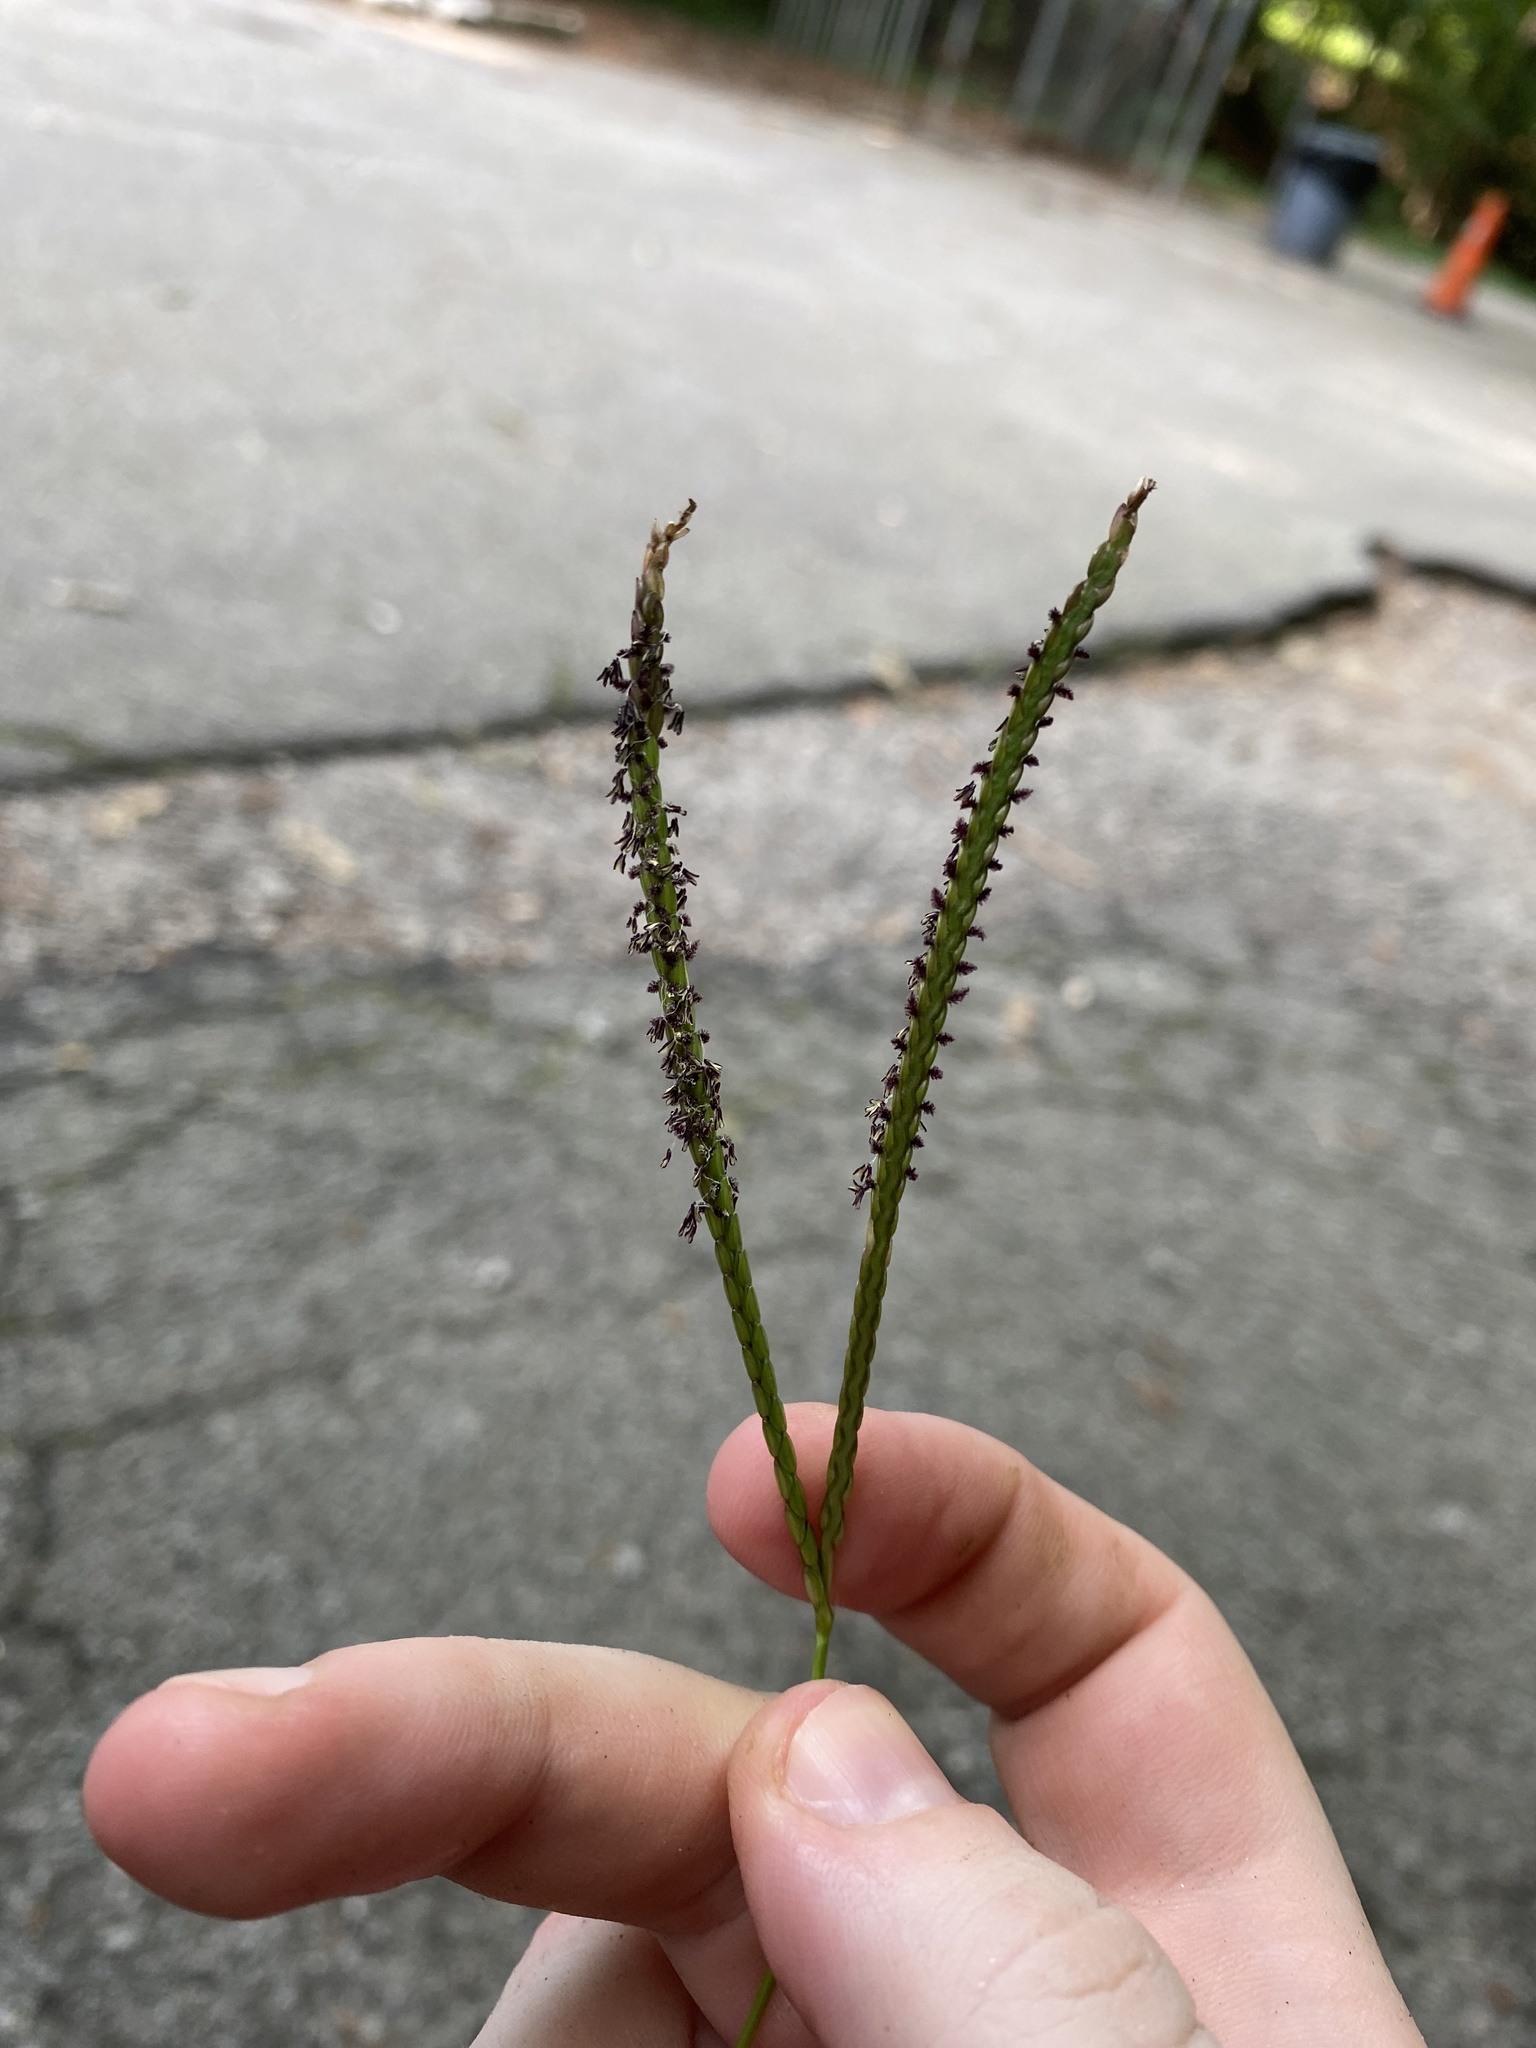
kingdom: Plantae
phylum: Tracheophyta
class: Liliopsida
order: Poales
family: Poaceae
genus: Paspalum
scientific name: Paspalum notatum
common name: Bahiagrass
